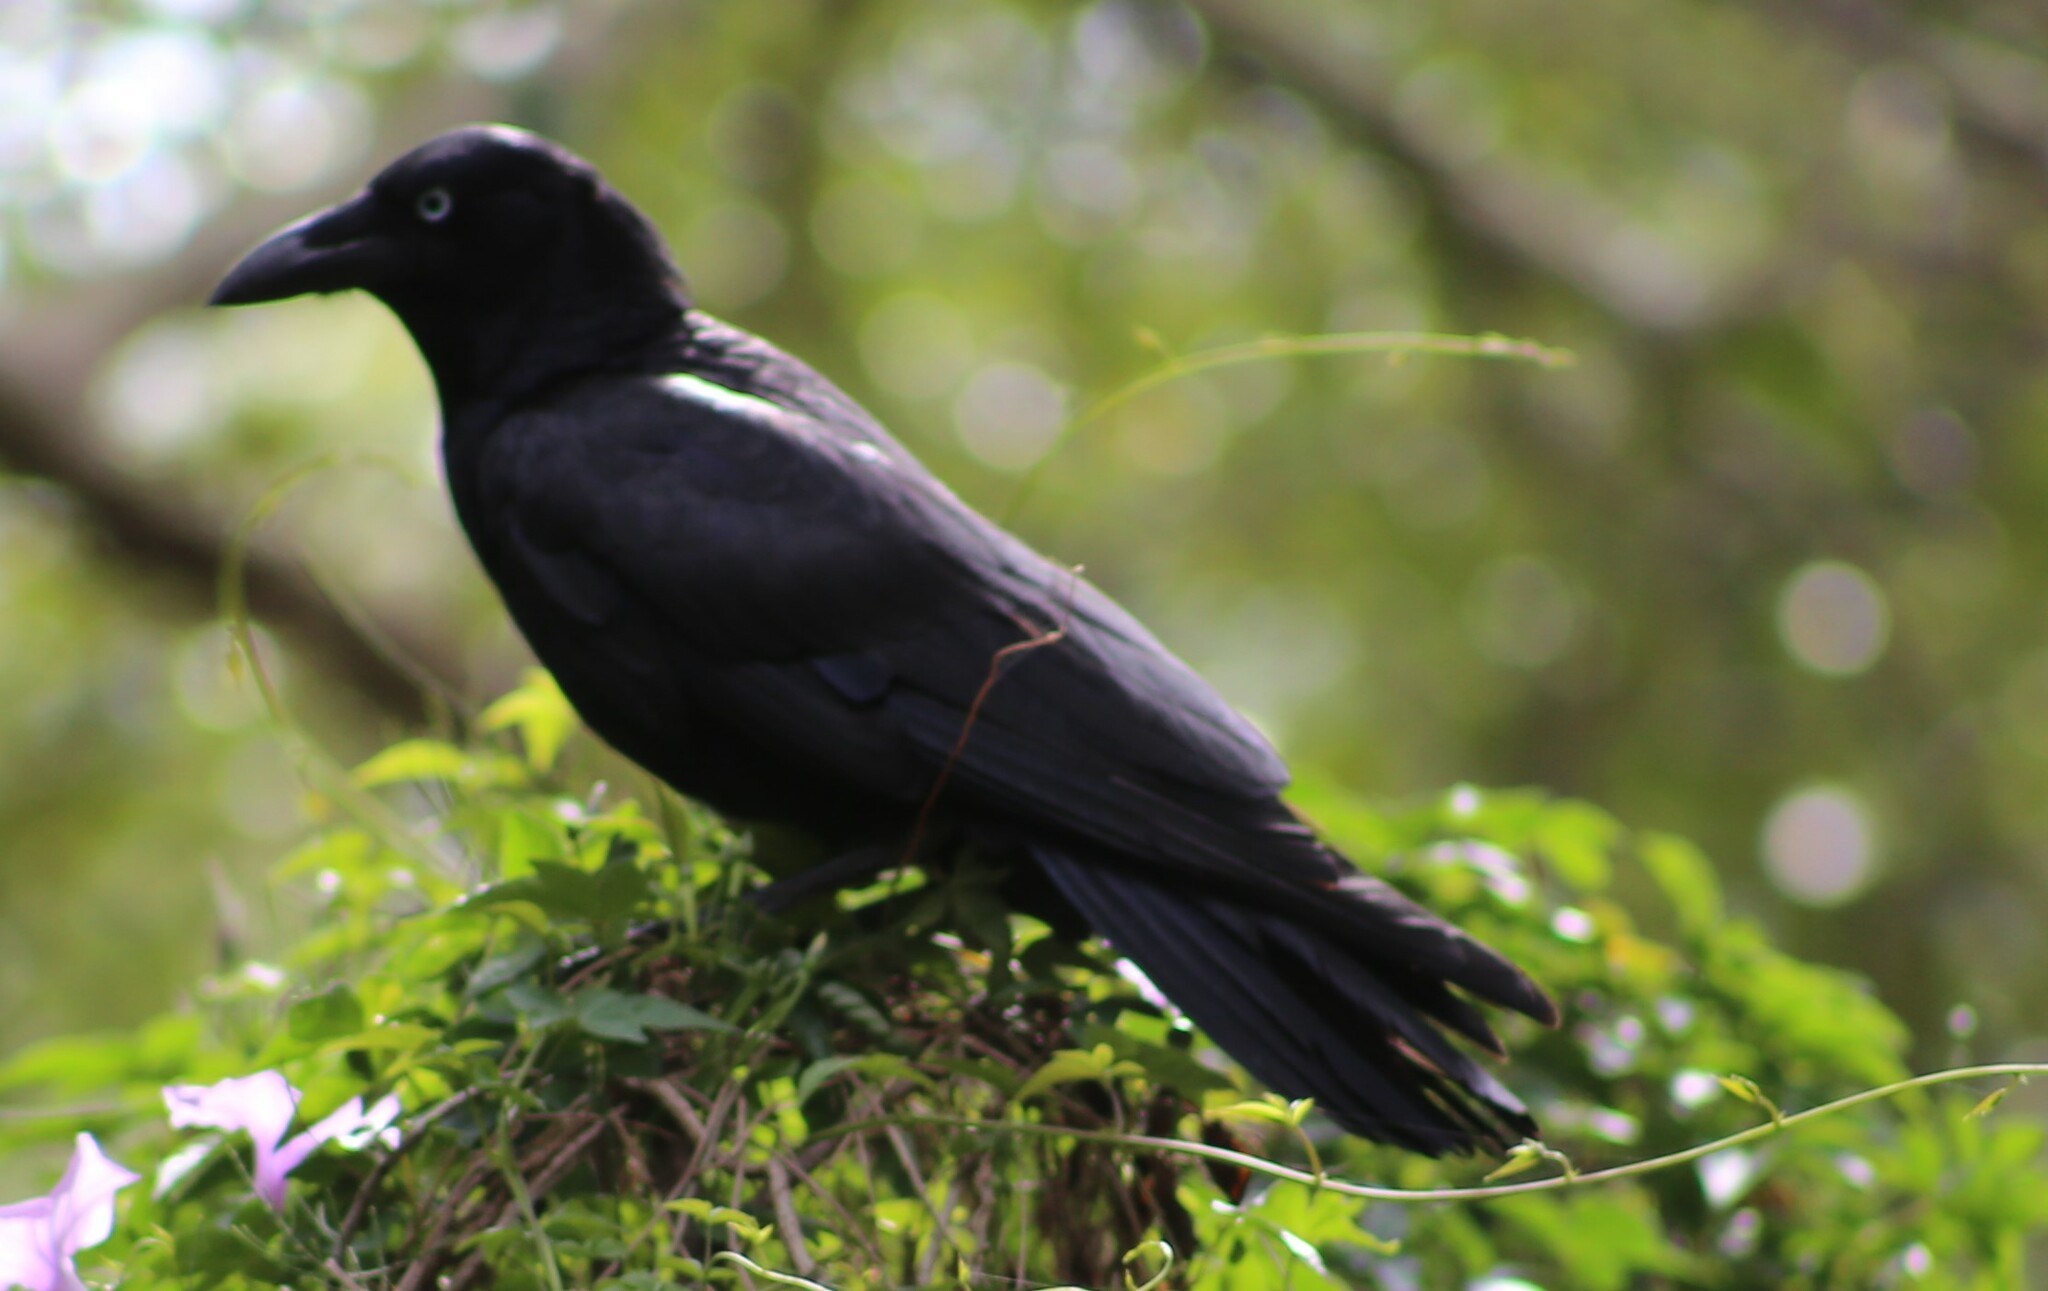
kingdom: Animalia
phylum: Chordata
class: Aves
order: Passeriformes
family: Corvidae
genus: Corvus
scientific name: Corvus orru
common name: Torresian crow
